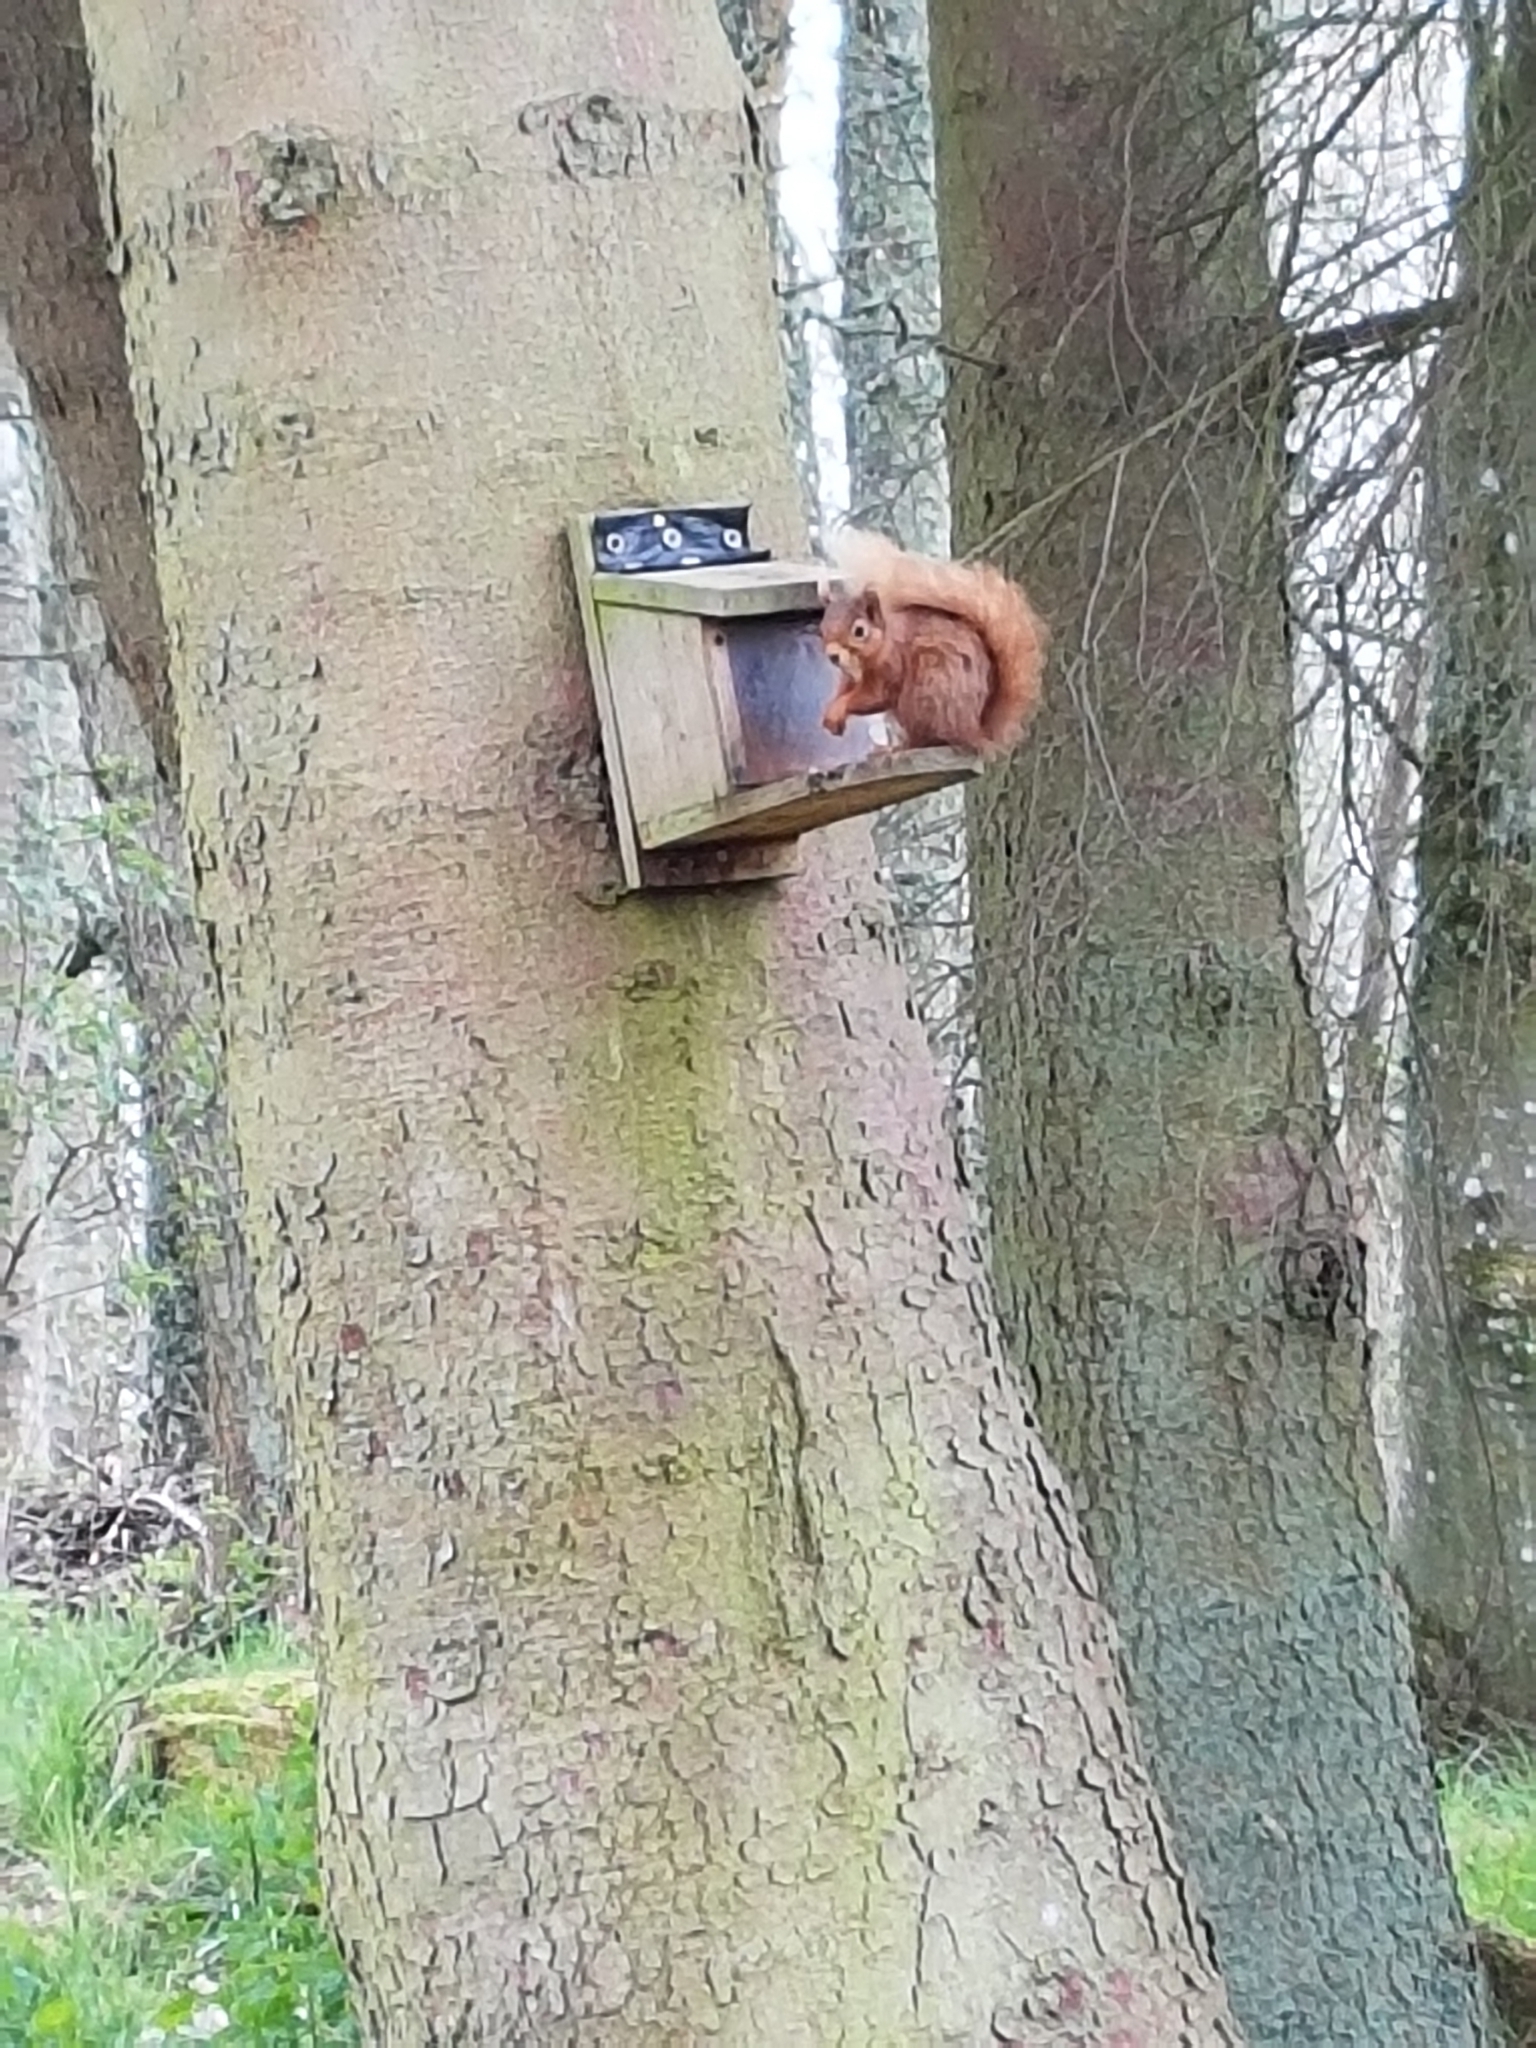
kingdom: Animalia
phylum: Chordata
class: Mammalia
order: Rodentia
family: Sciuridae
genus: Sciurus
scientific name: Sciurus vulgaris
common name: Eurasian red squirrel
